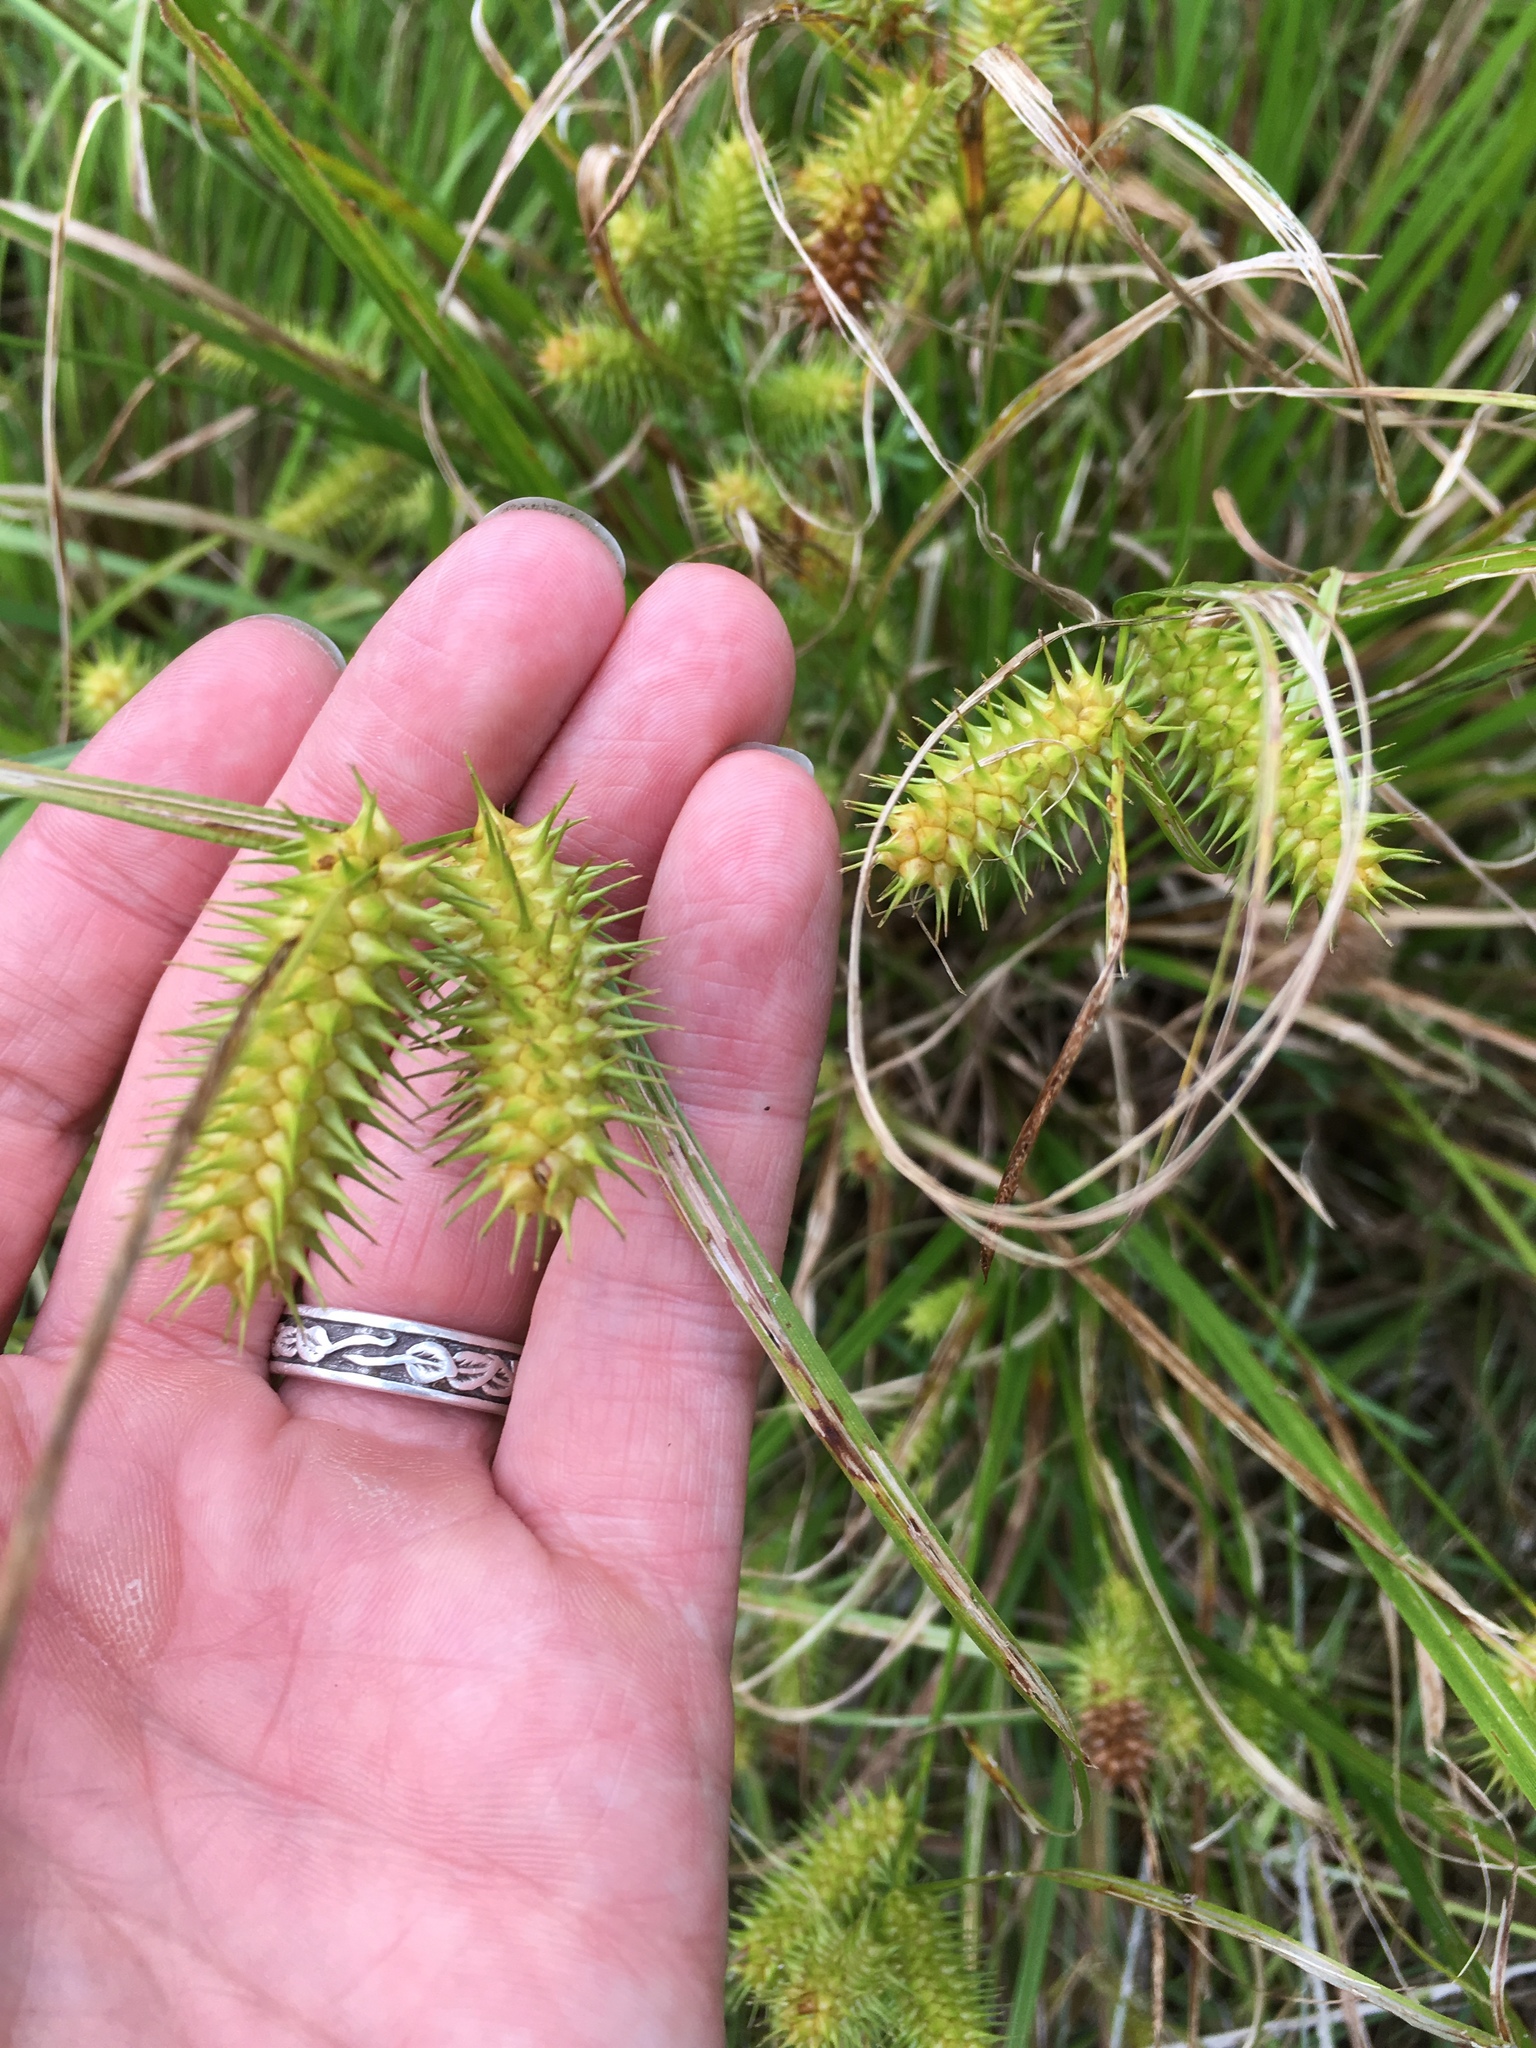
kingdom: Plantae
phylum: Tracheophyta
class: Liliopsida
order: Poales
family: Cyperaceae
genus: Carex
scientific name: Carex lurida
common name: Sallow sedge
